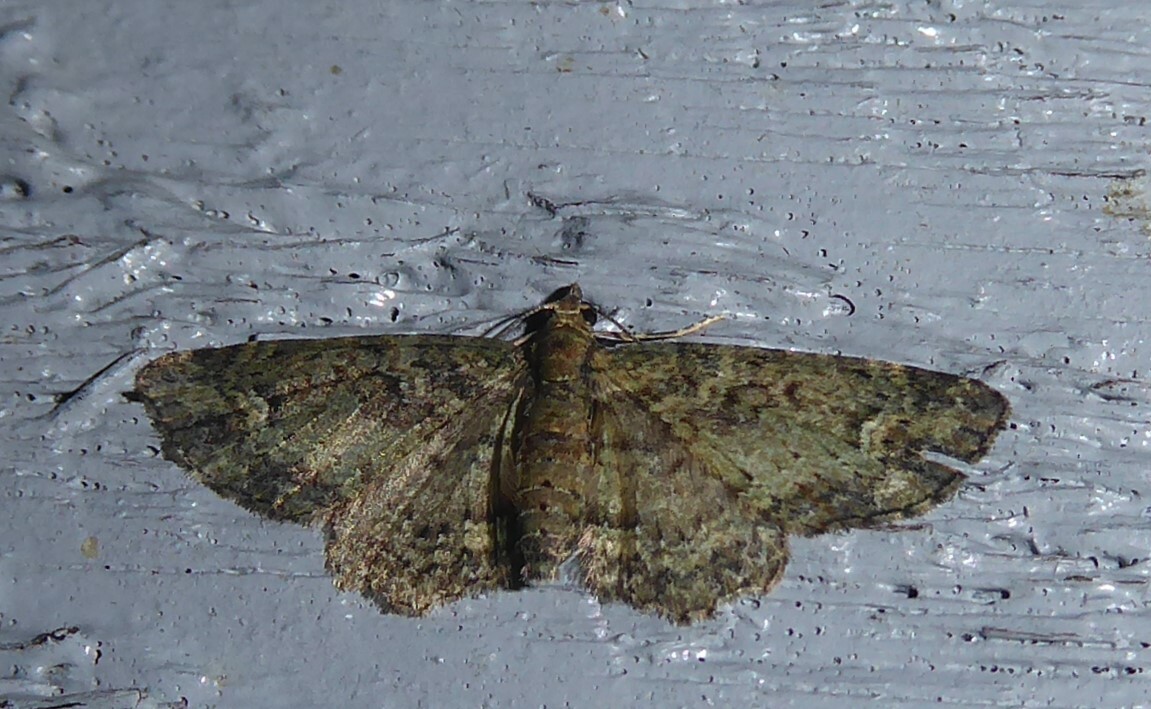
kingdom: Animalia
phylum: Arthropoda
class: Insecta
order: Lepidoptera
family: Geometridae
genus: Pasiphilodes
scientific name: Pasiphilodes testulata
